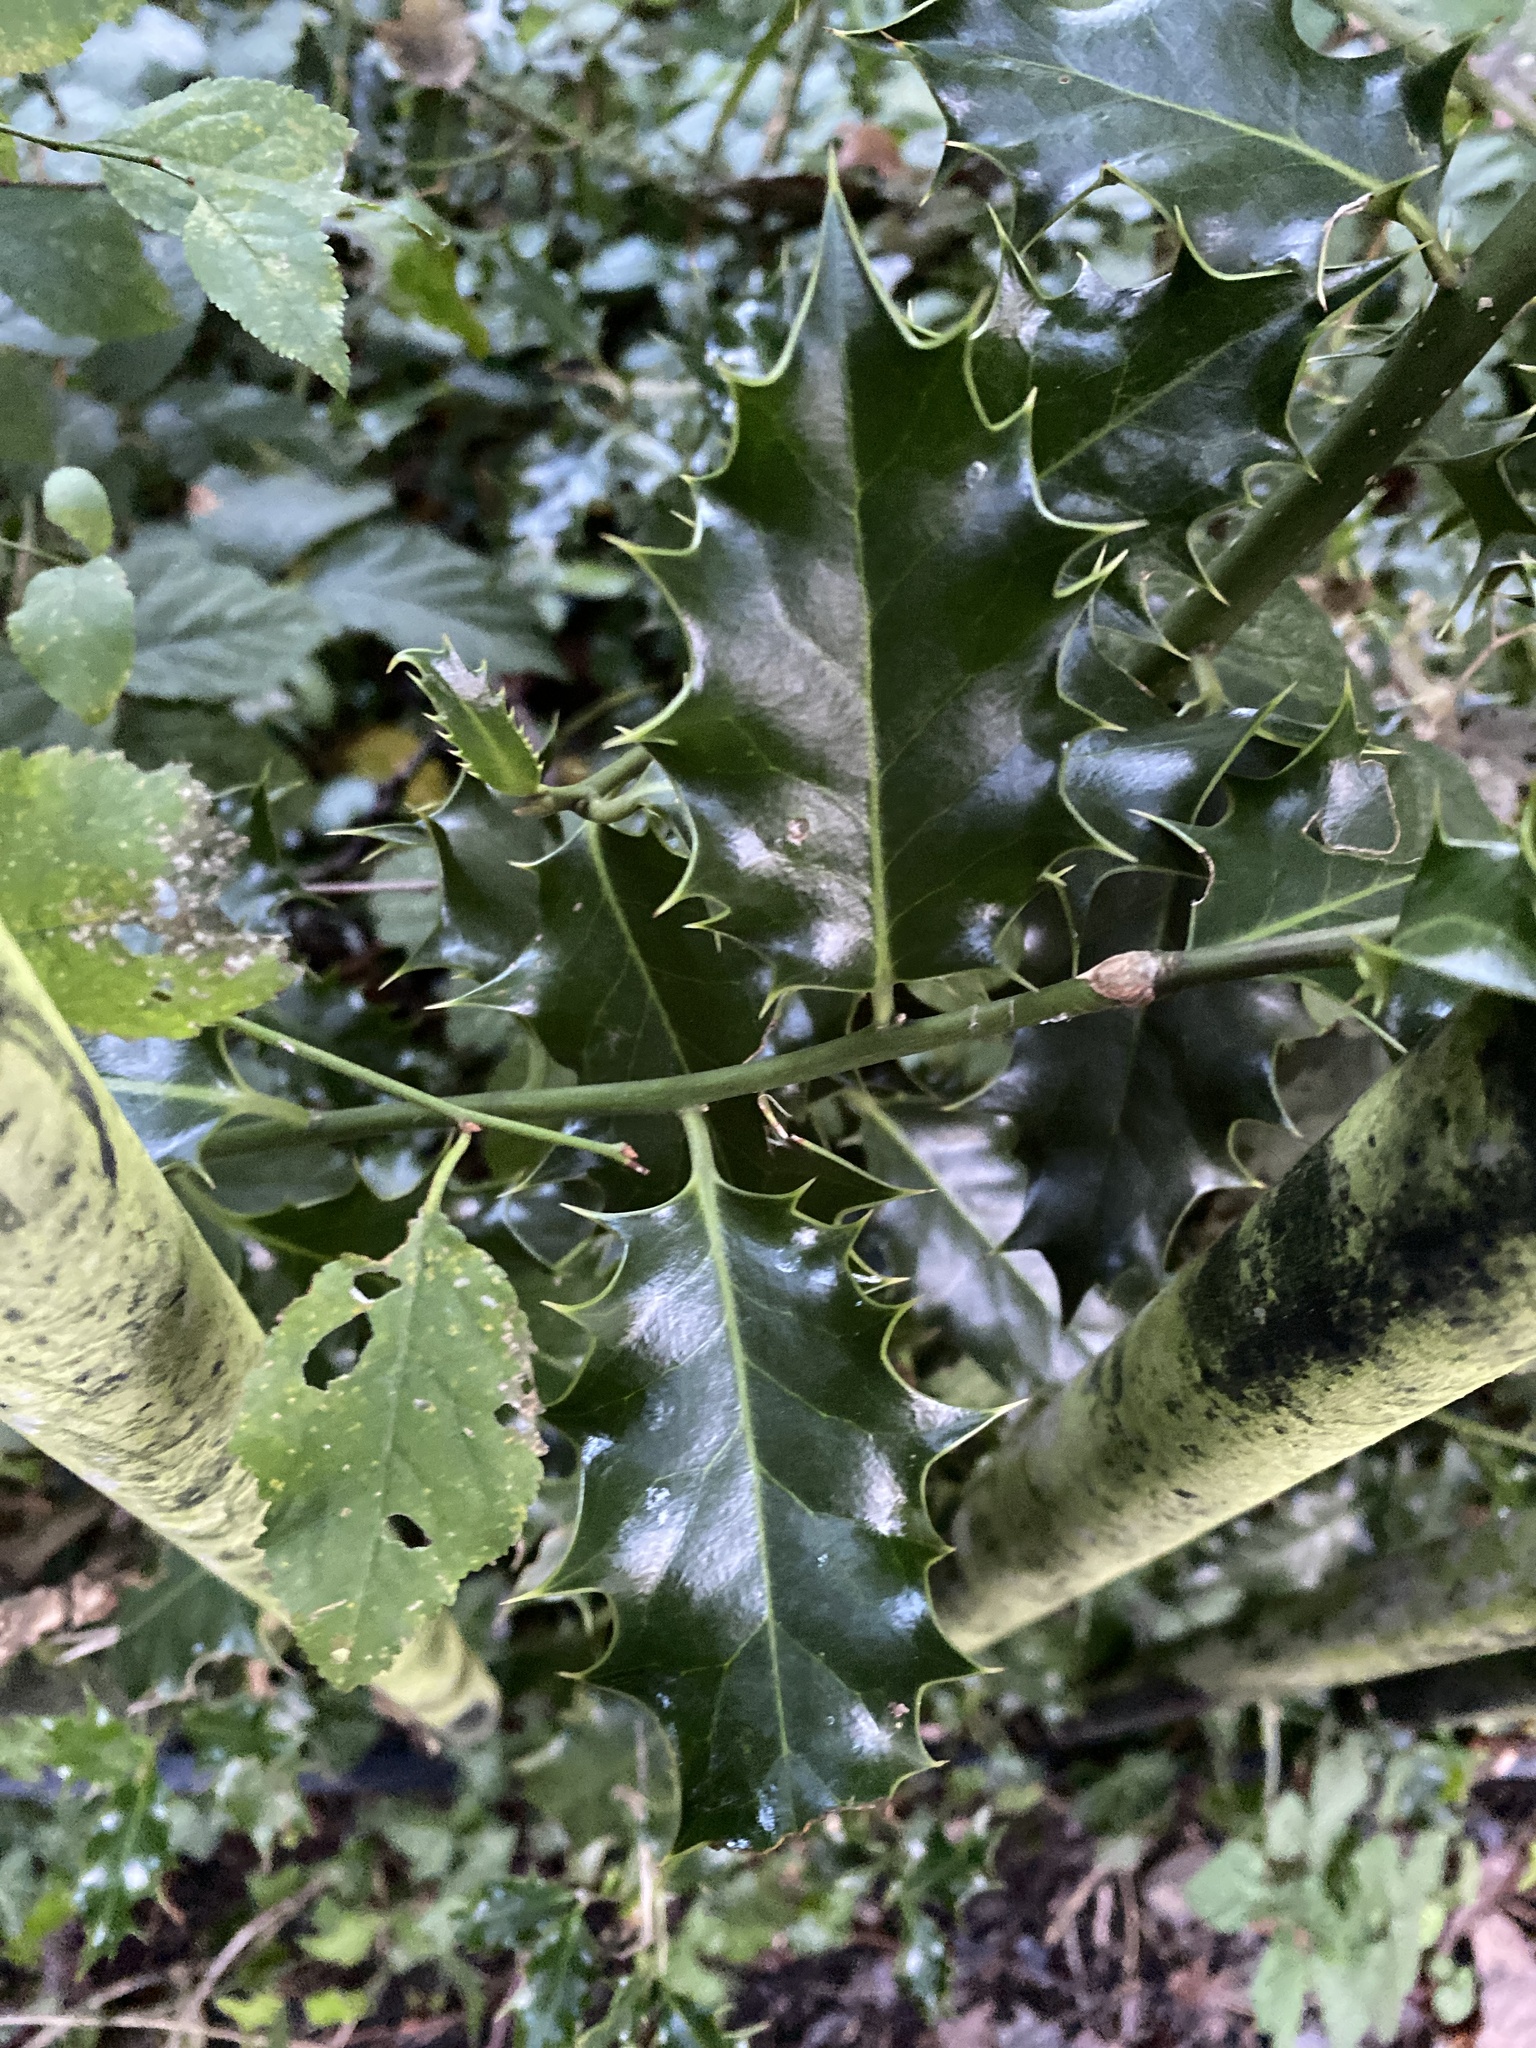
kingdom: Plantae
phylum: Tracheophyta
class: Magnoliopsida
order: Aquifoliales
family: Aquifoliaceae
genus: Ilex
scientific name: Ilex aquifolium
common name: English holly
